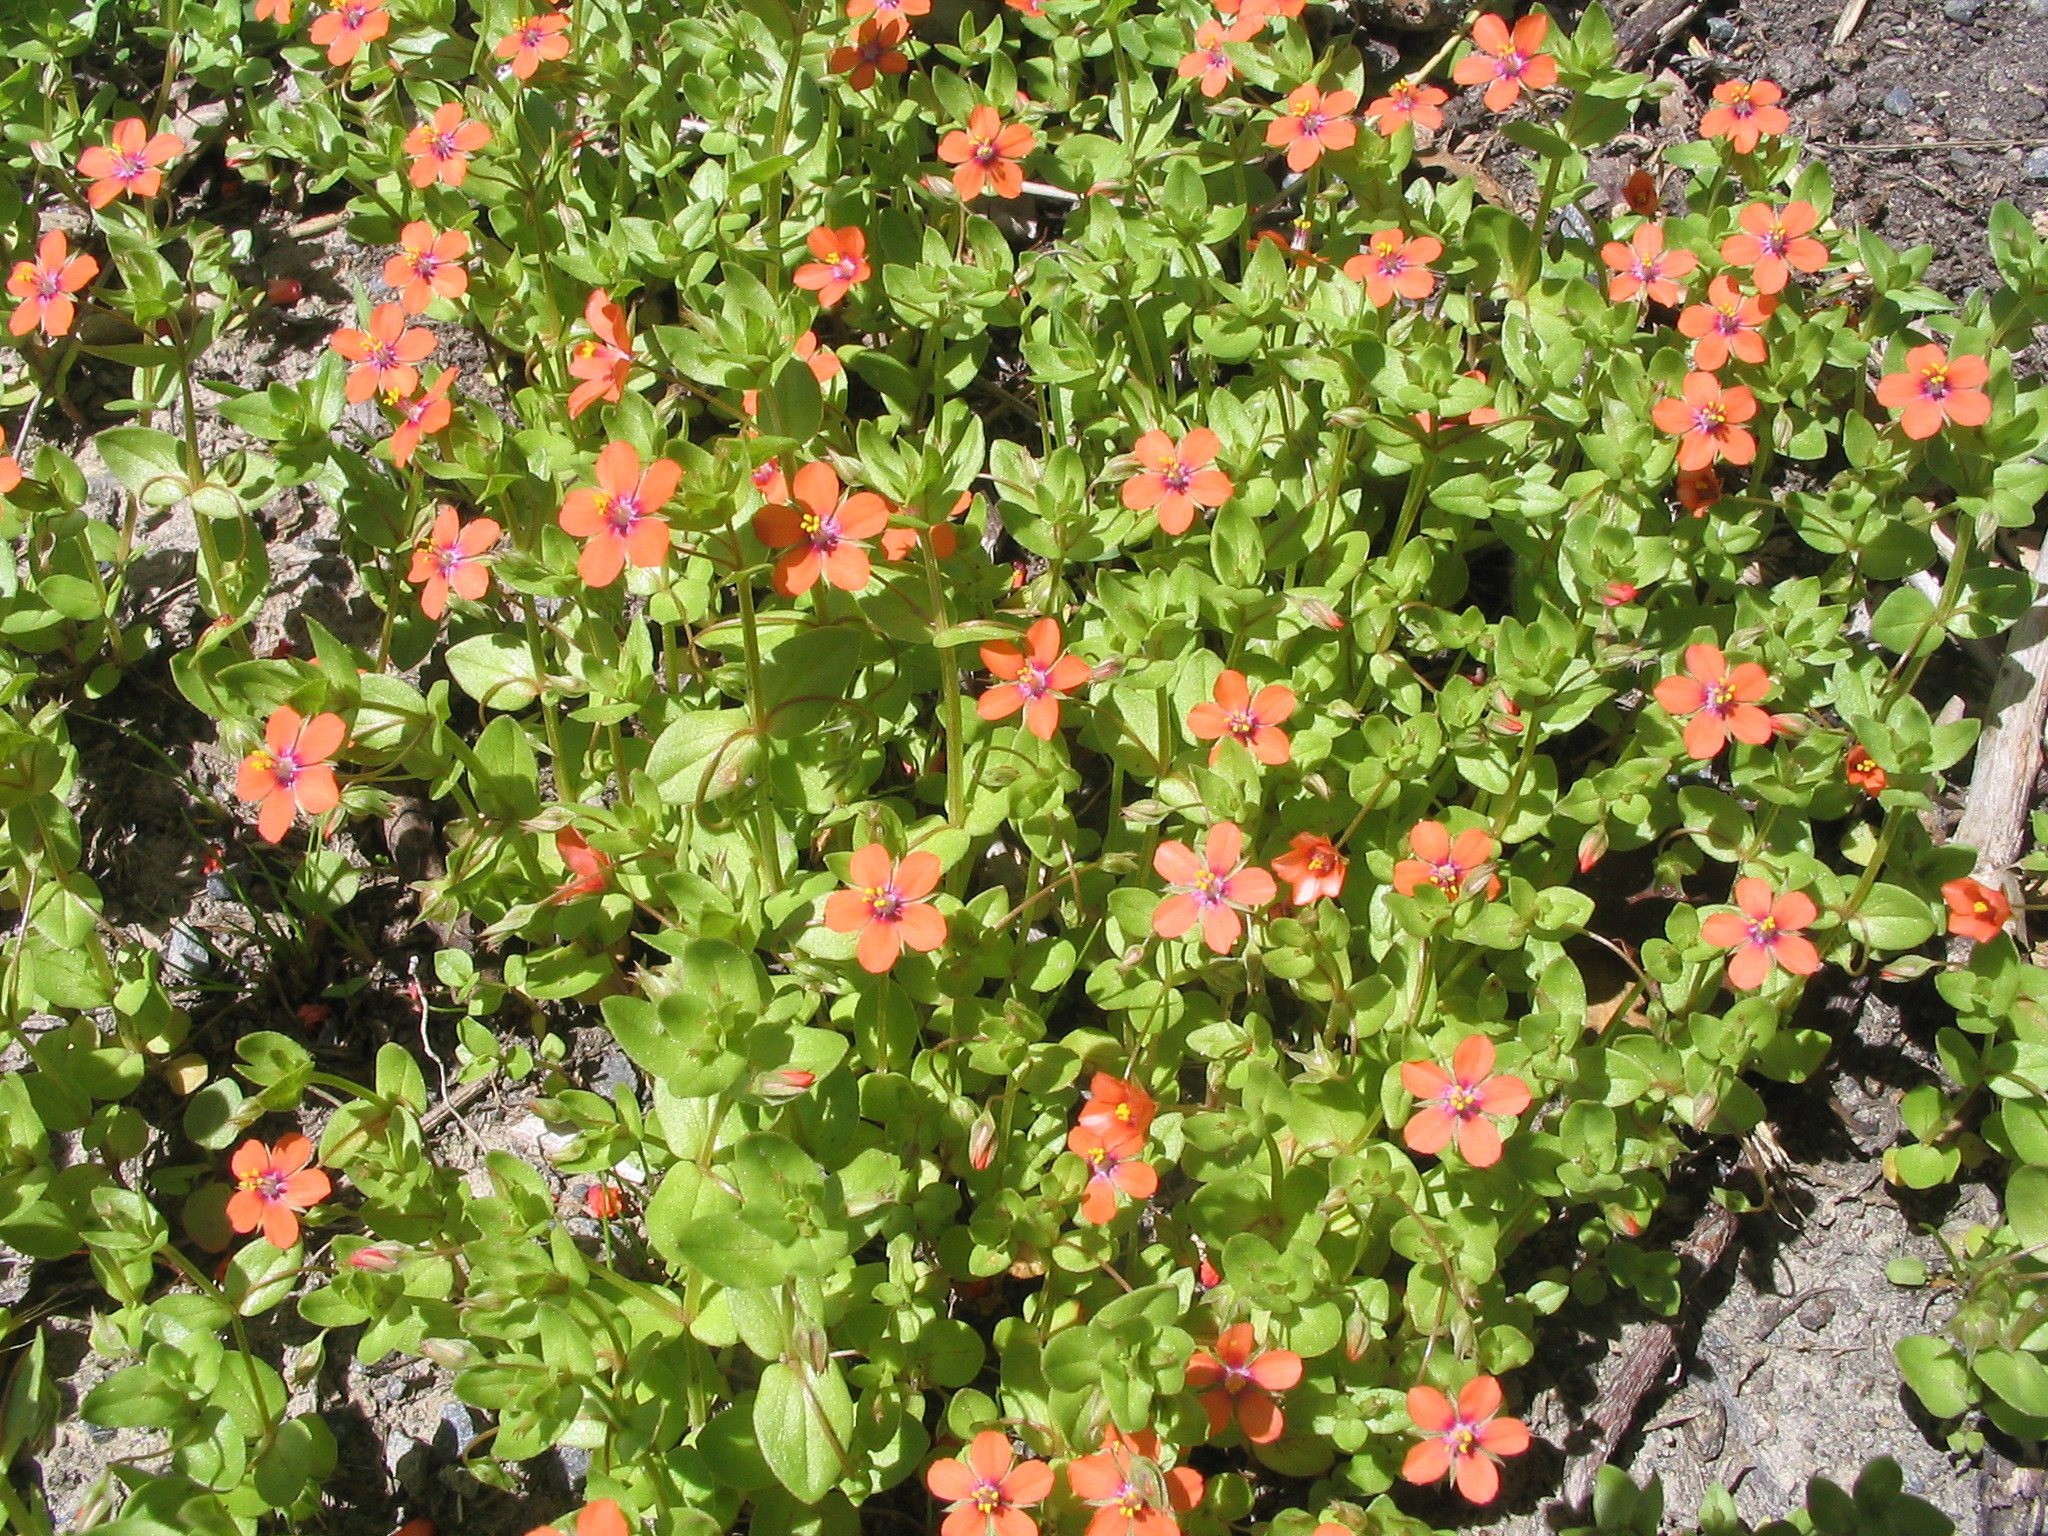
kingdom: Plantae
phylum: Tracheophyta
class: Magnoliopsida
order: Ericales
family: Primulaceae
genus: Lysimachia
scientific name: Lysimachia arvensis
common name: Scarlet pimpernel
